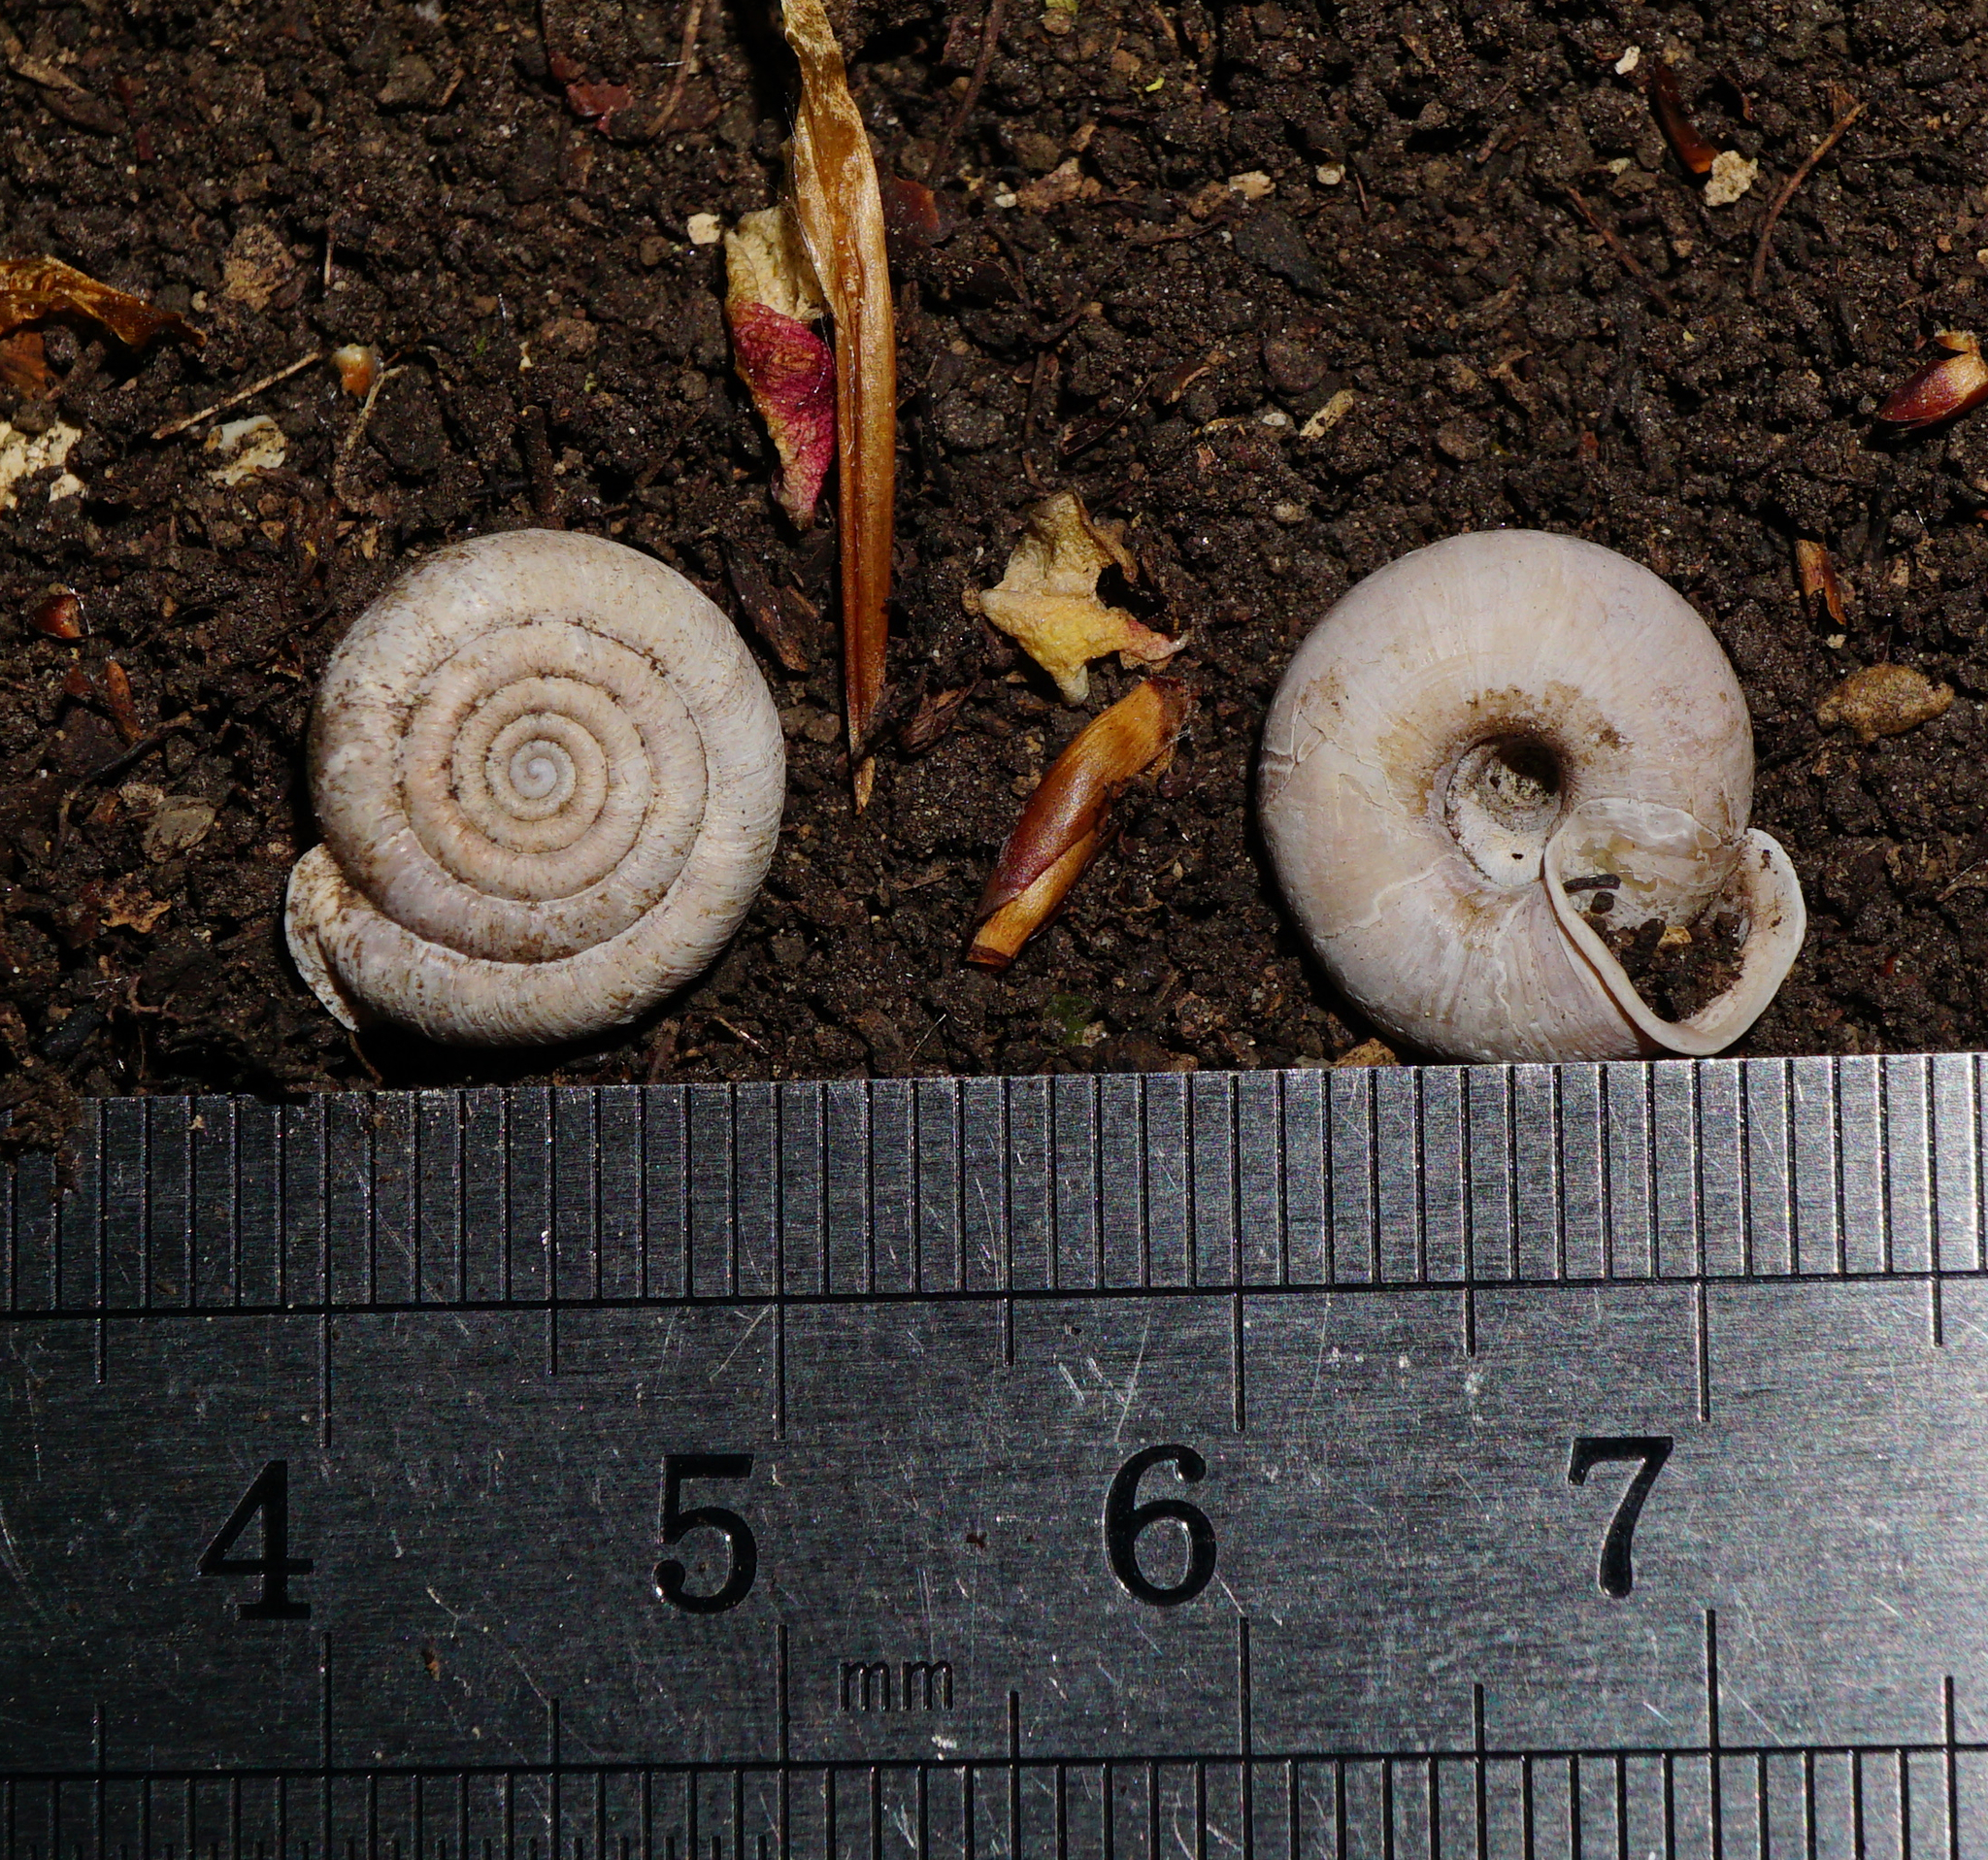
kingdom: Animalia
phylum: Mollusca
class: Gastropoda
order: Stylommatophora
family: Helicodontidae
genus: Helicodonta
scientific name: Helicodonta obvoluta
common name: Cheese snail
